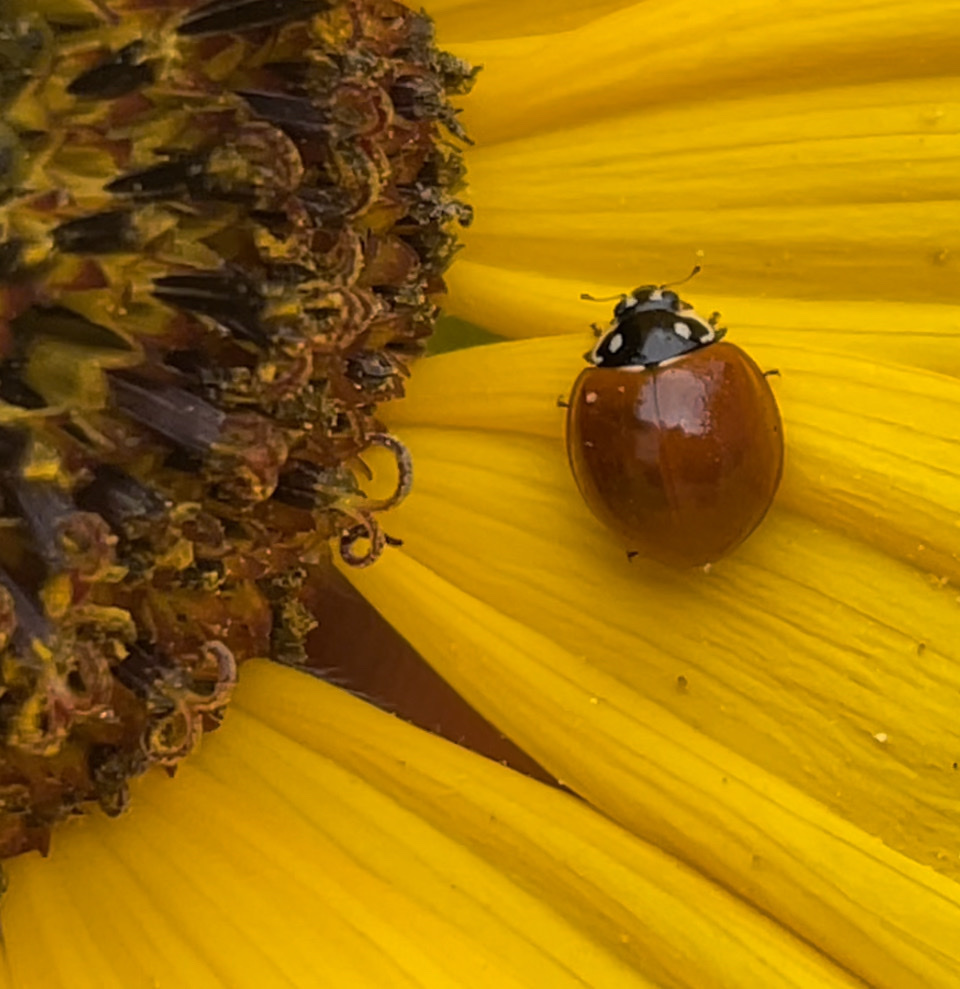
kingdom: Animalia
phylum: Arthropoda
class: Insecta
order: Coleoptera
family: Coccinellidae
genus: Cycloneda
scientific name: Cycloneda sanguinea
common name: Ladybird beetle
